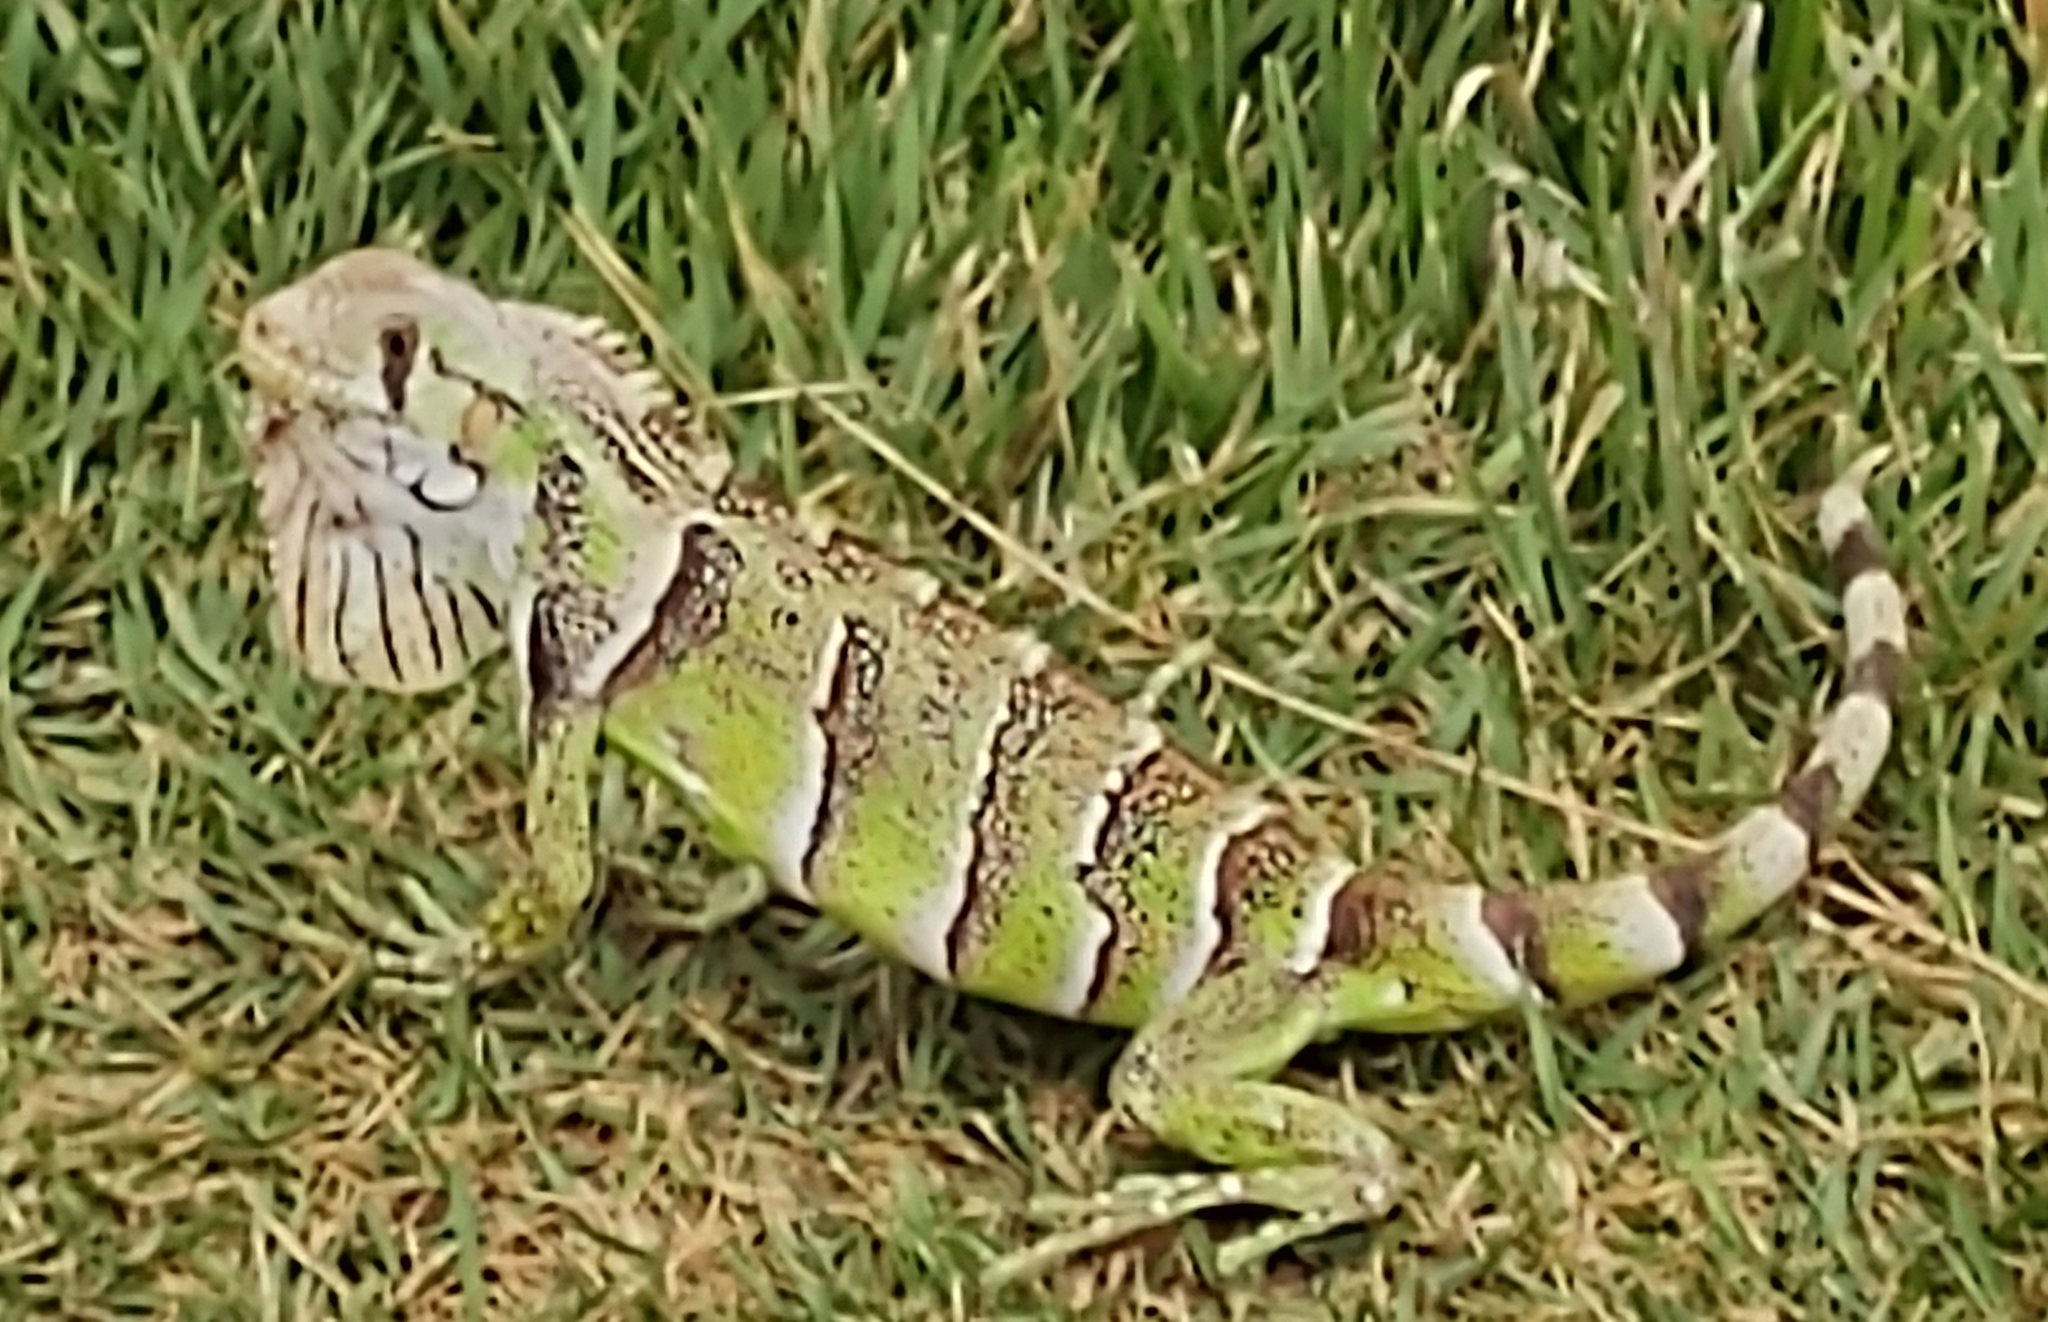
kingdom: Animalia
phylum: Chordata
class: Squamata
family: Iguanidae
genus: Iguana
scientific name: Iguana iguana
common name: Green iguana
